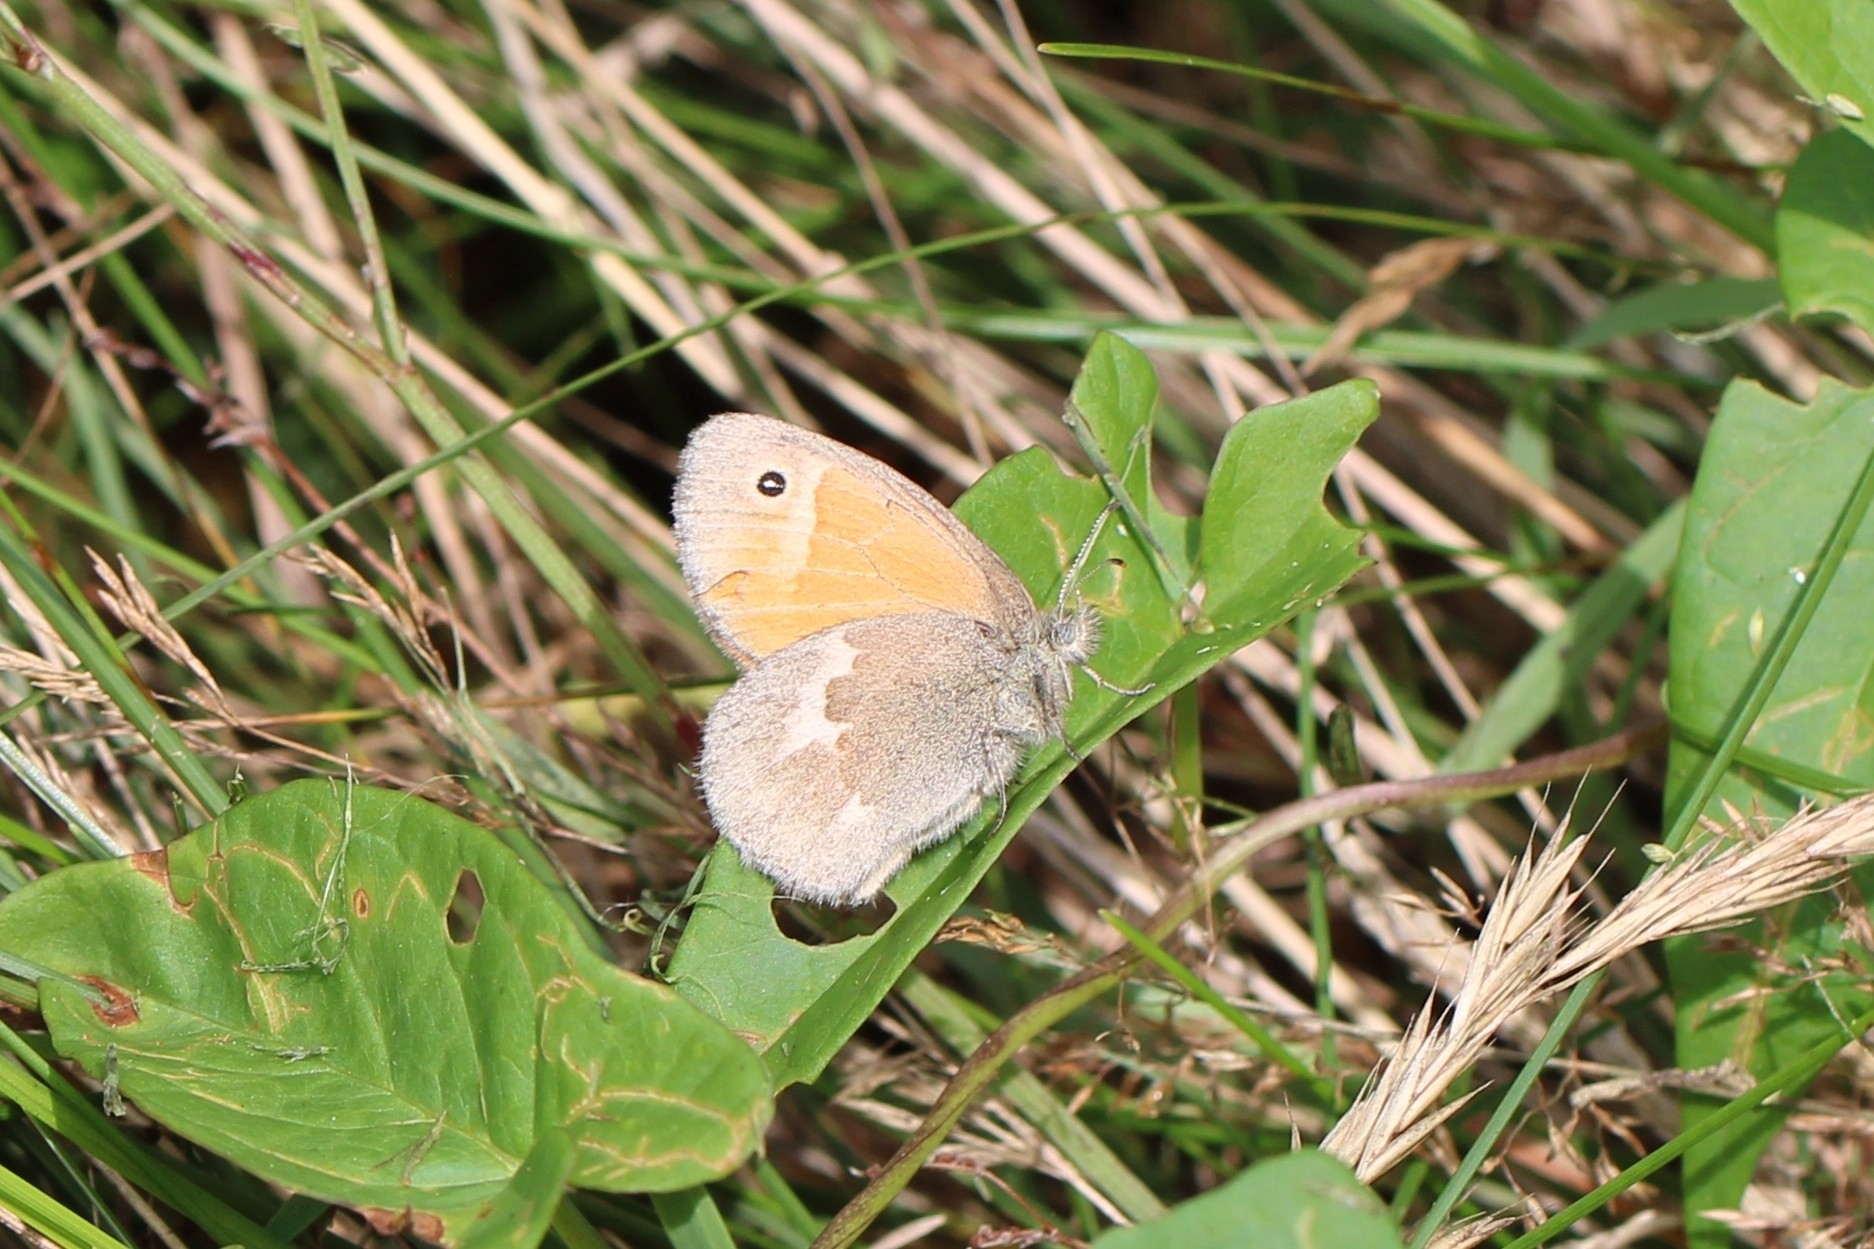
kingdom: Animalia
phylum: Arthropoda
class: Insecta
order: Lepidoptera
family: Nymphalidae
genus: Coenonympha
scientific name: Coenonympha california
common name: Common ringlet
